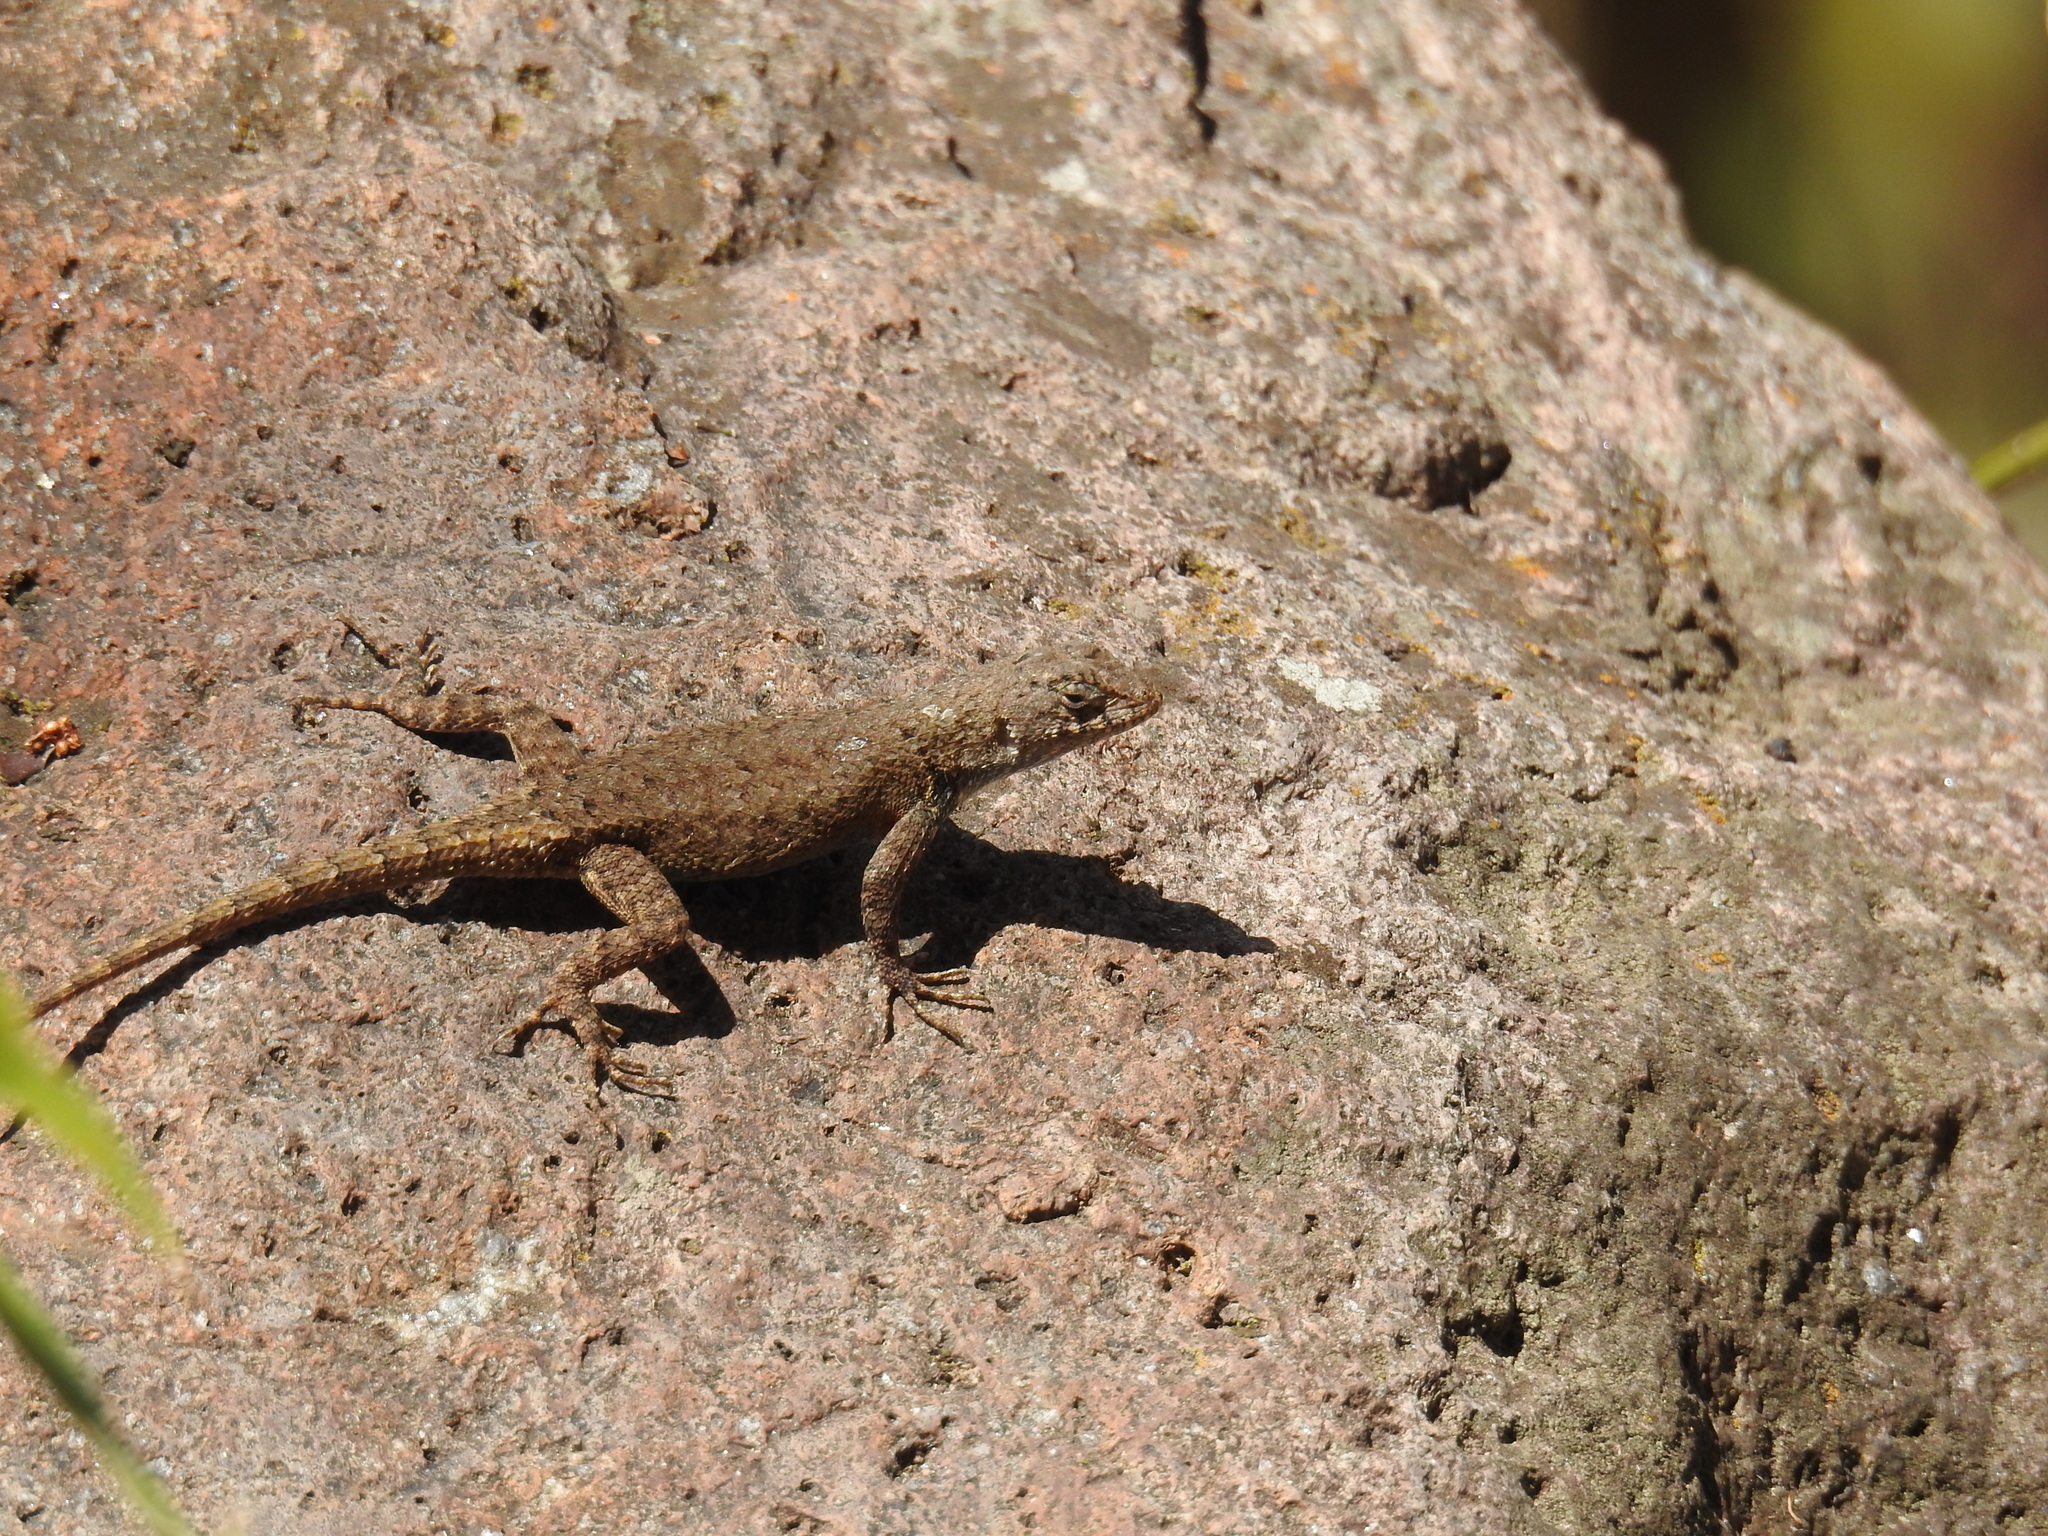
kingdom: Animalia
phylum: Chordata
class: Squamata
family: Phrynosomatidae
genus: Sceloporus
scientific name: Sceloporus nelsoni
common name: Nelson's spiny lizard
